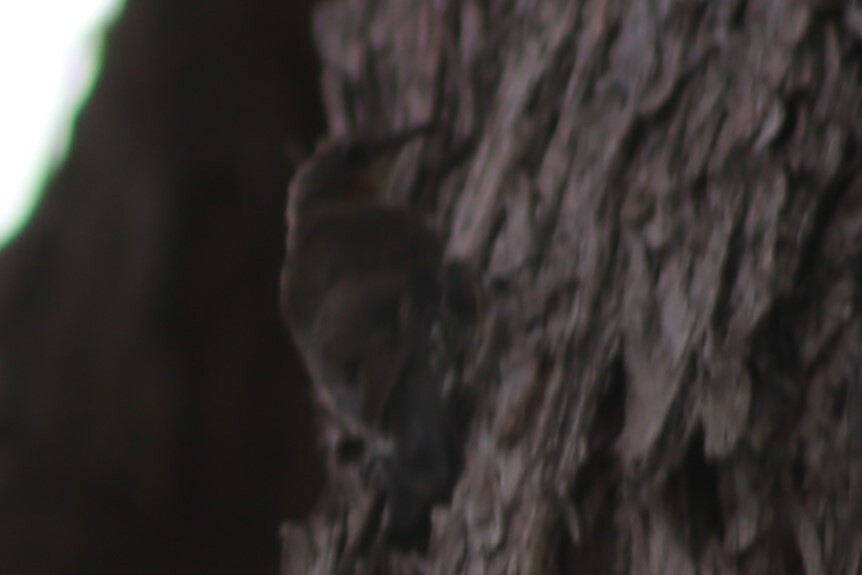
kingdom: Animalia
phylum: Chordata
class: Aves
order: Passeriformes
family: Climacteridae
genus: Cormobates
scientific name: Cormobates leucophaea
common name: White-throated treecreeper
